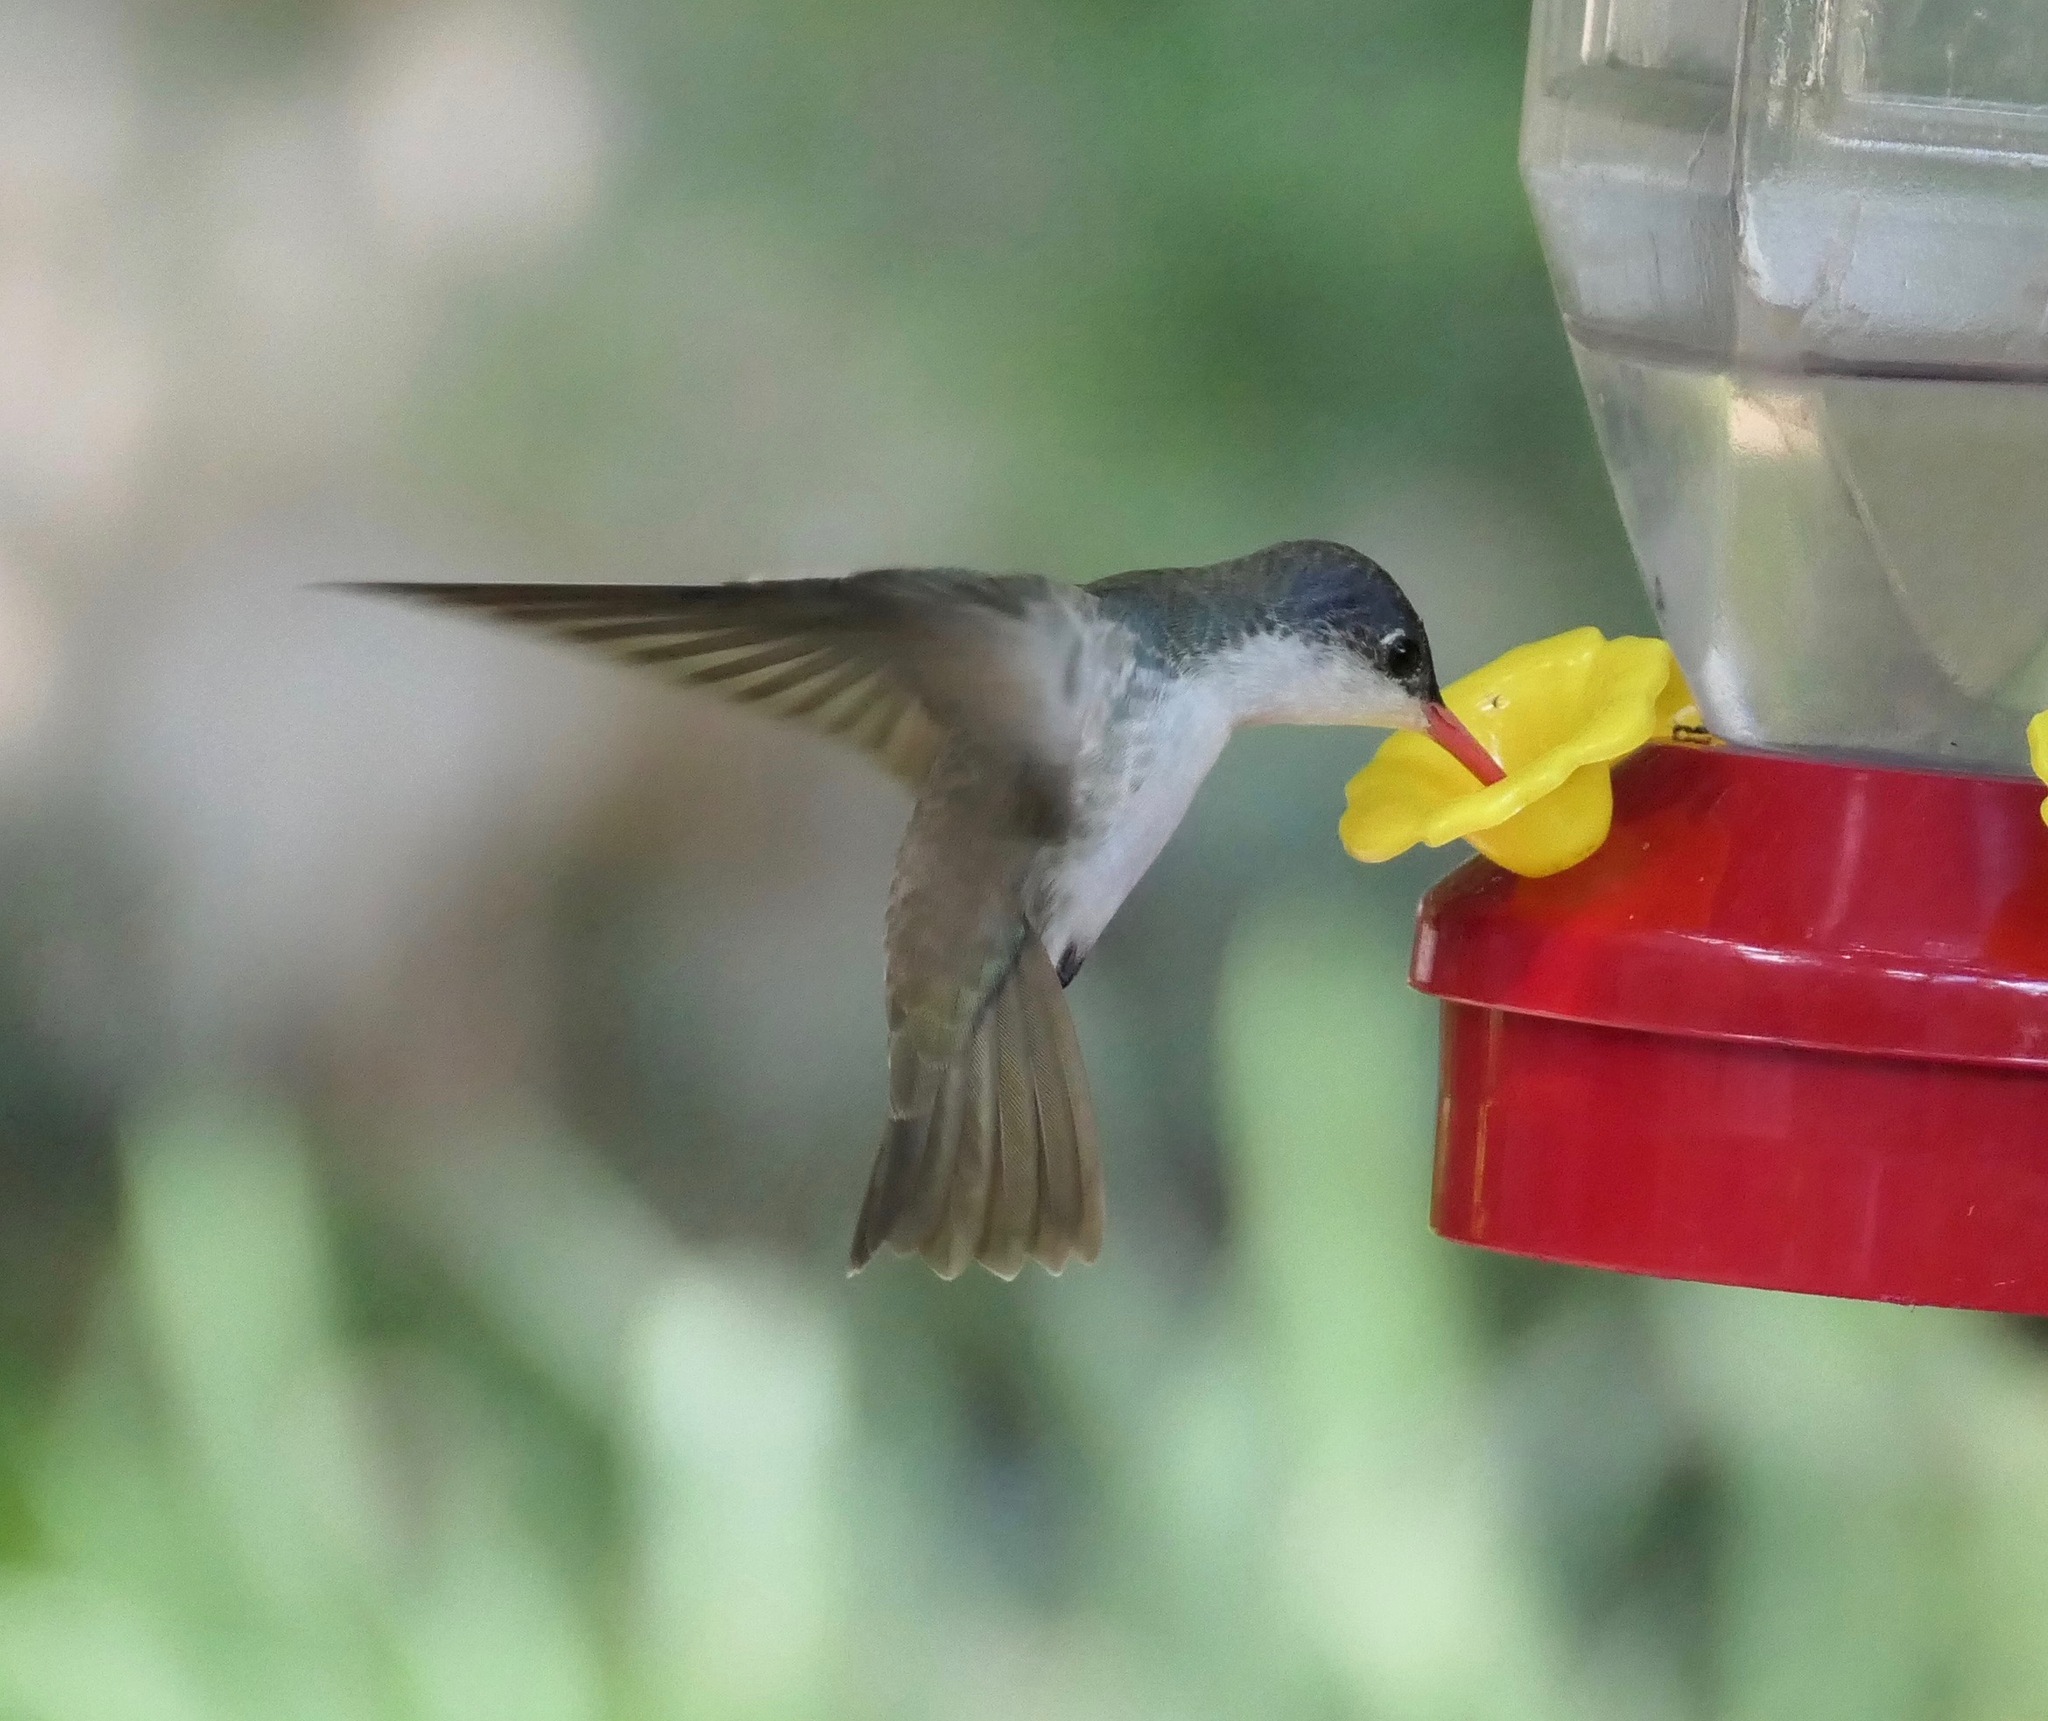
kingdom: Animalia
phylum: Chordata
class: Aves
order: Apodiformes
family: Trochilidae
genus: Leucolia
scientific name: Leucolia violiceps
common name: Violet-crowned hummingbird
